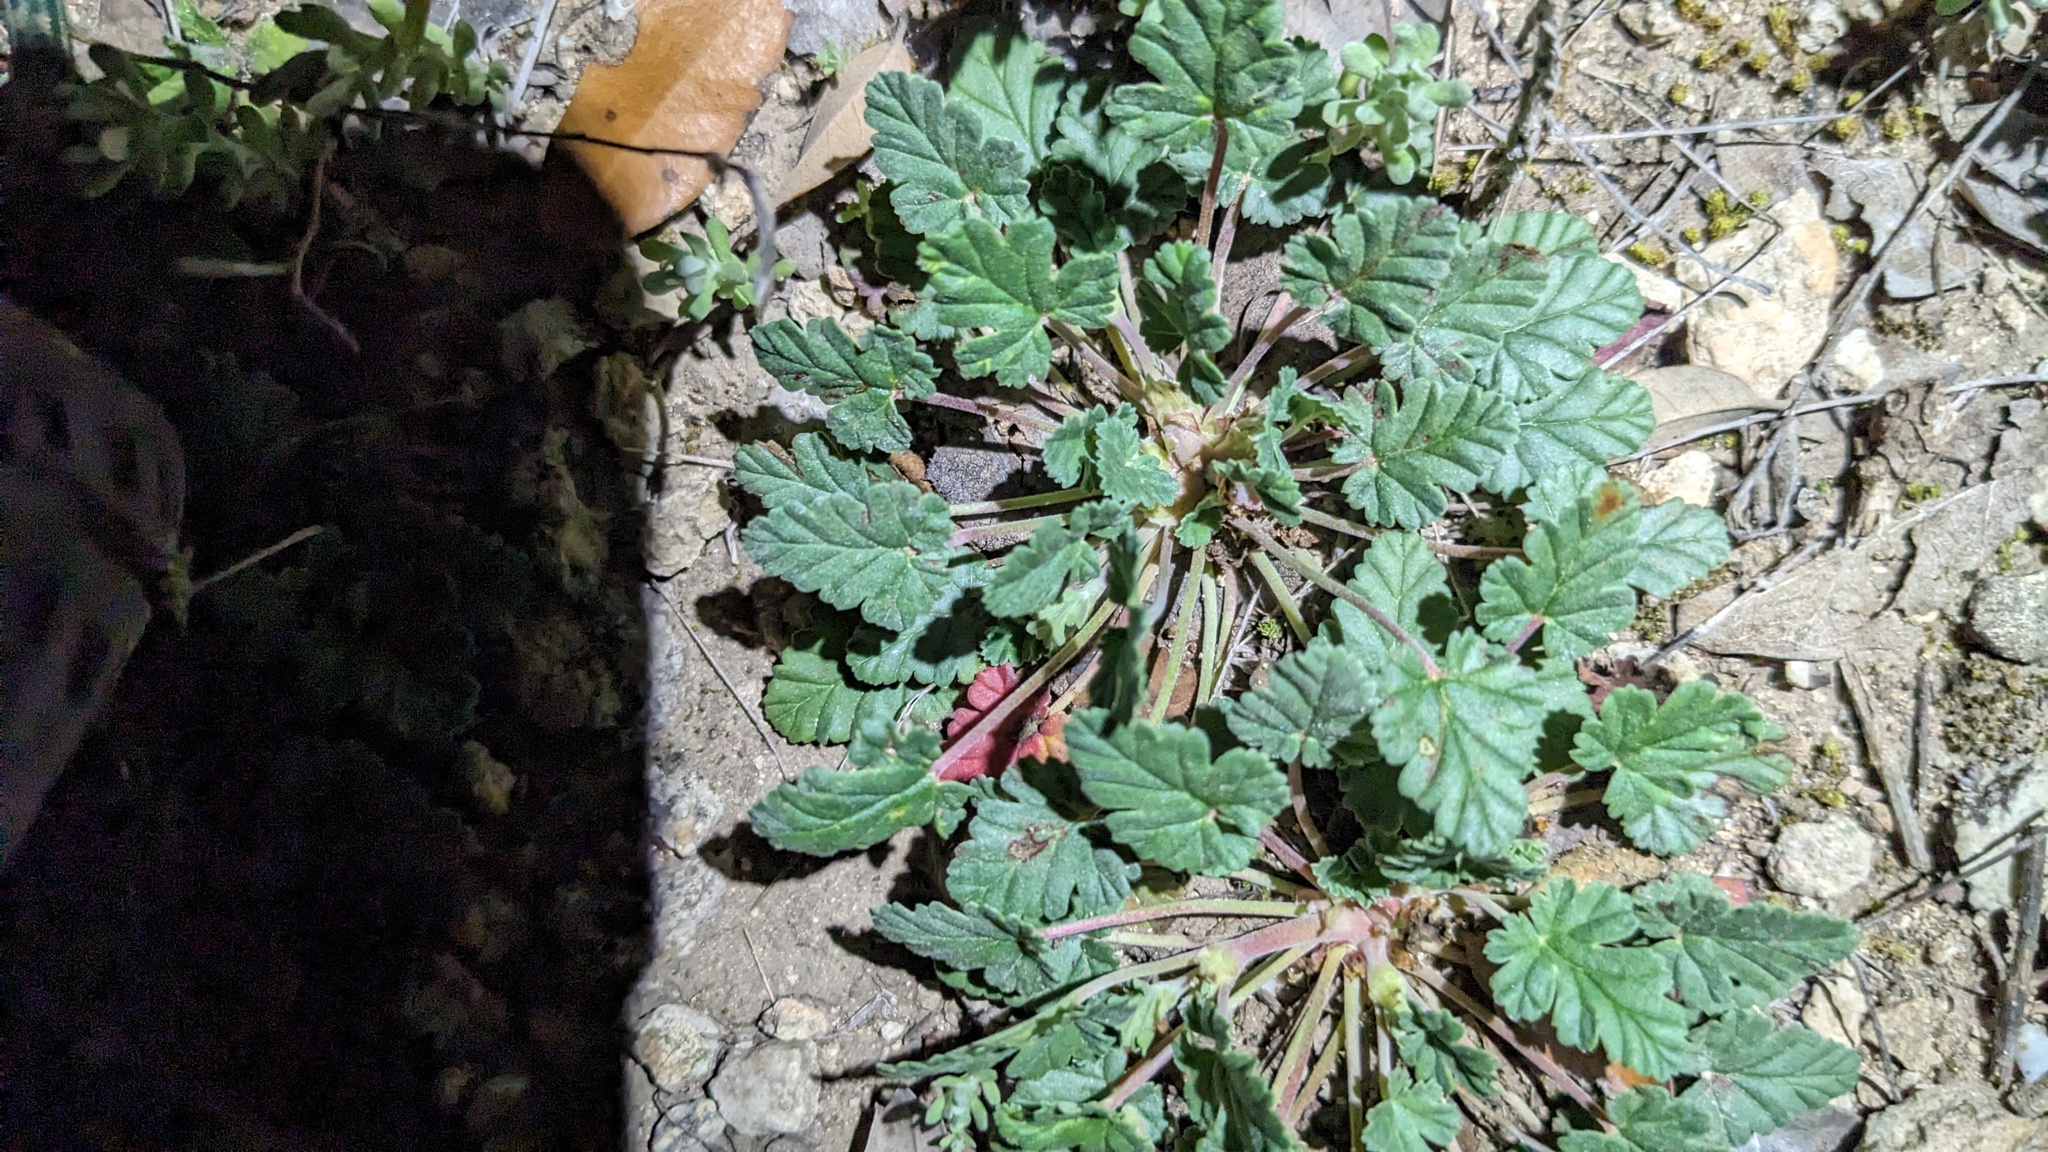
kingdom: Plantae
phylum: Tracheophyta
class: Magnoliopsida
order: Geraniales
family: Geraniaceae
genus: Erodium
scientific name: Erodium texanum
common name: Texas stork's-bill
